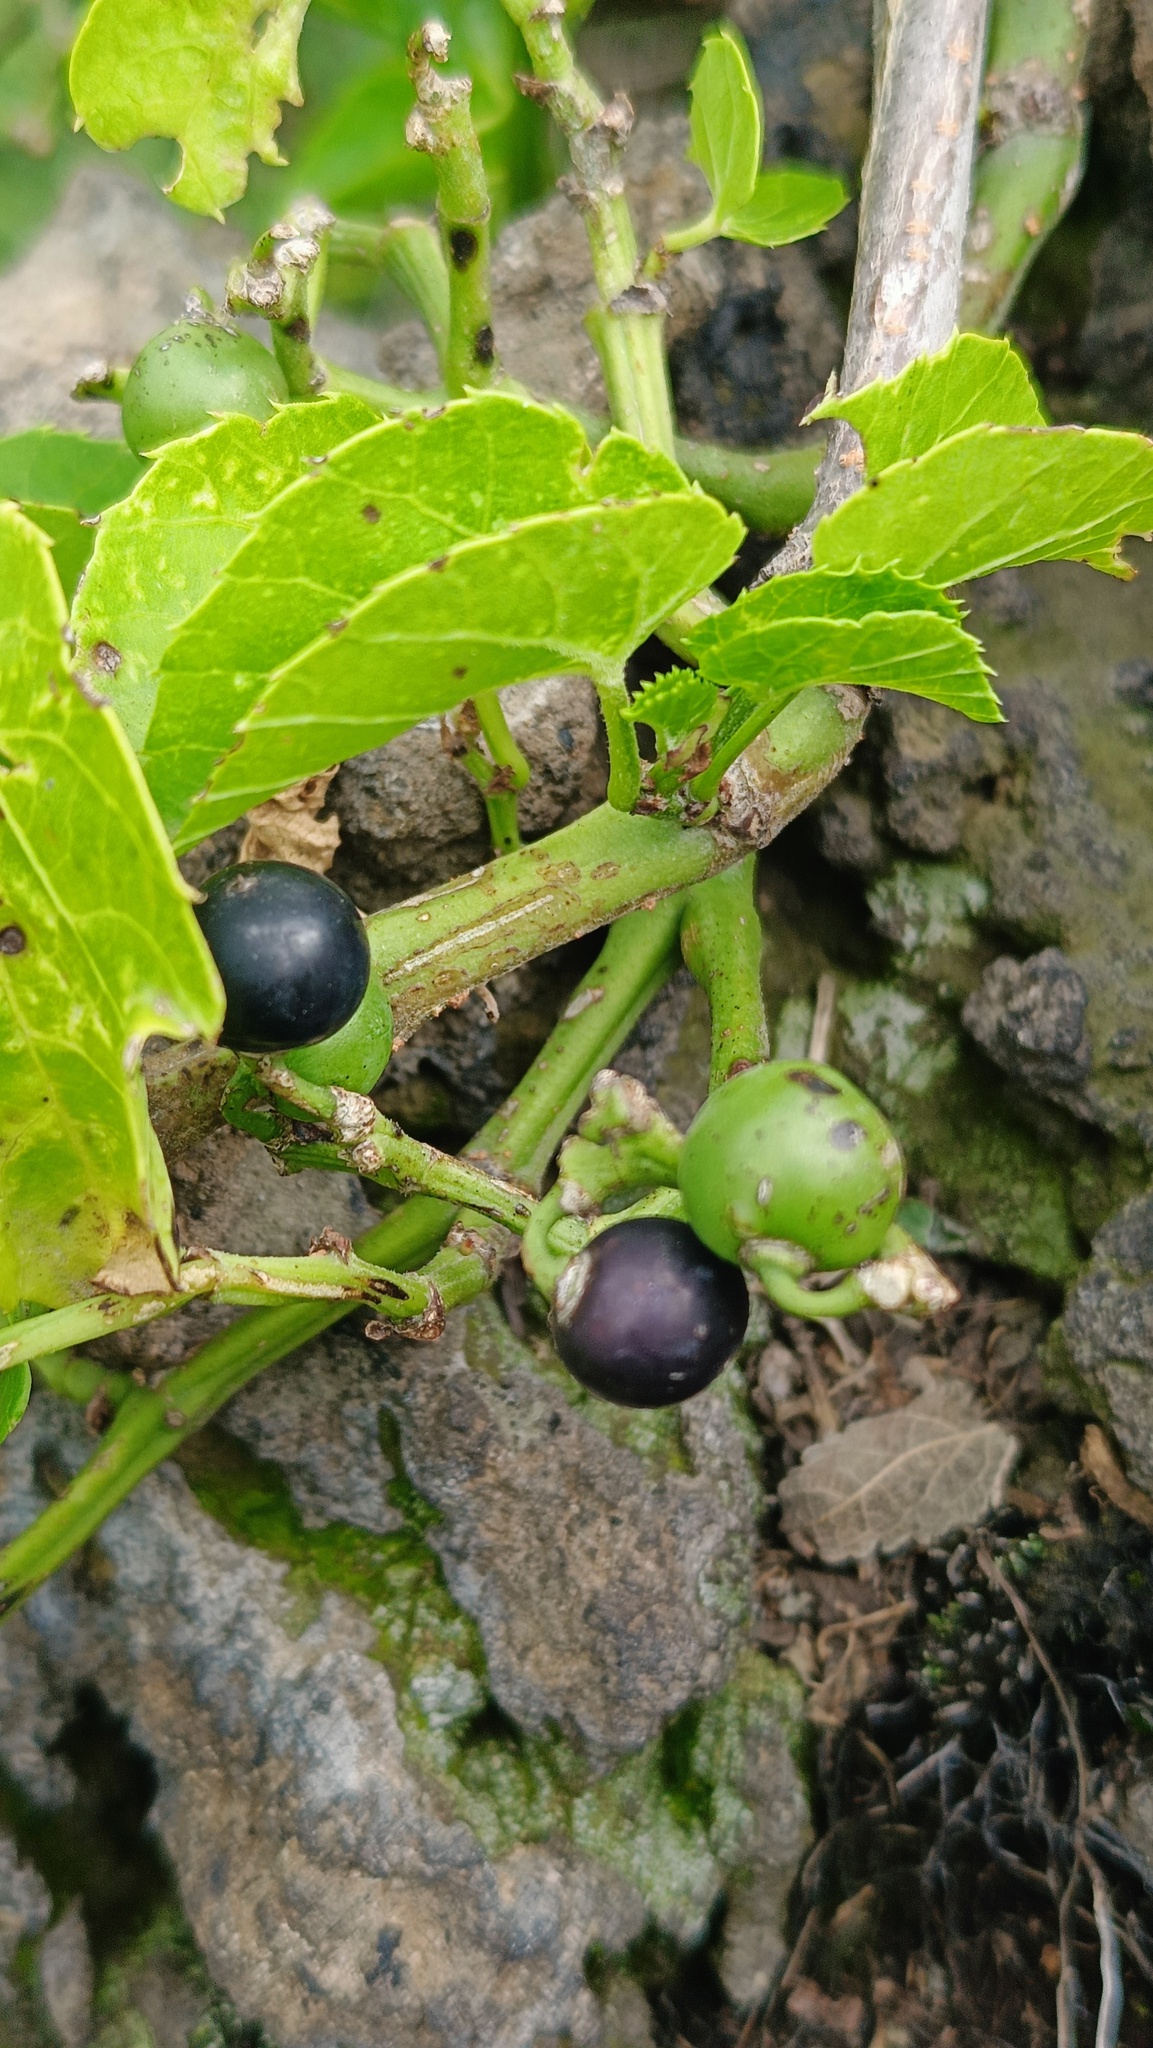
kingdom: Plantae
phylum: Tracheophyta
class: Magnoliopsida
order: Vitales
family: Vitaceae
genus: Cissus
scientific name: Cissus verticillata
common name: Princess vine
